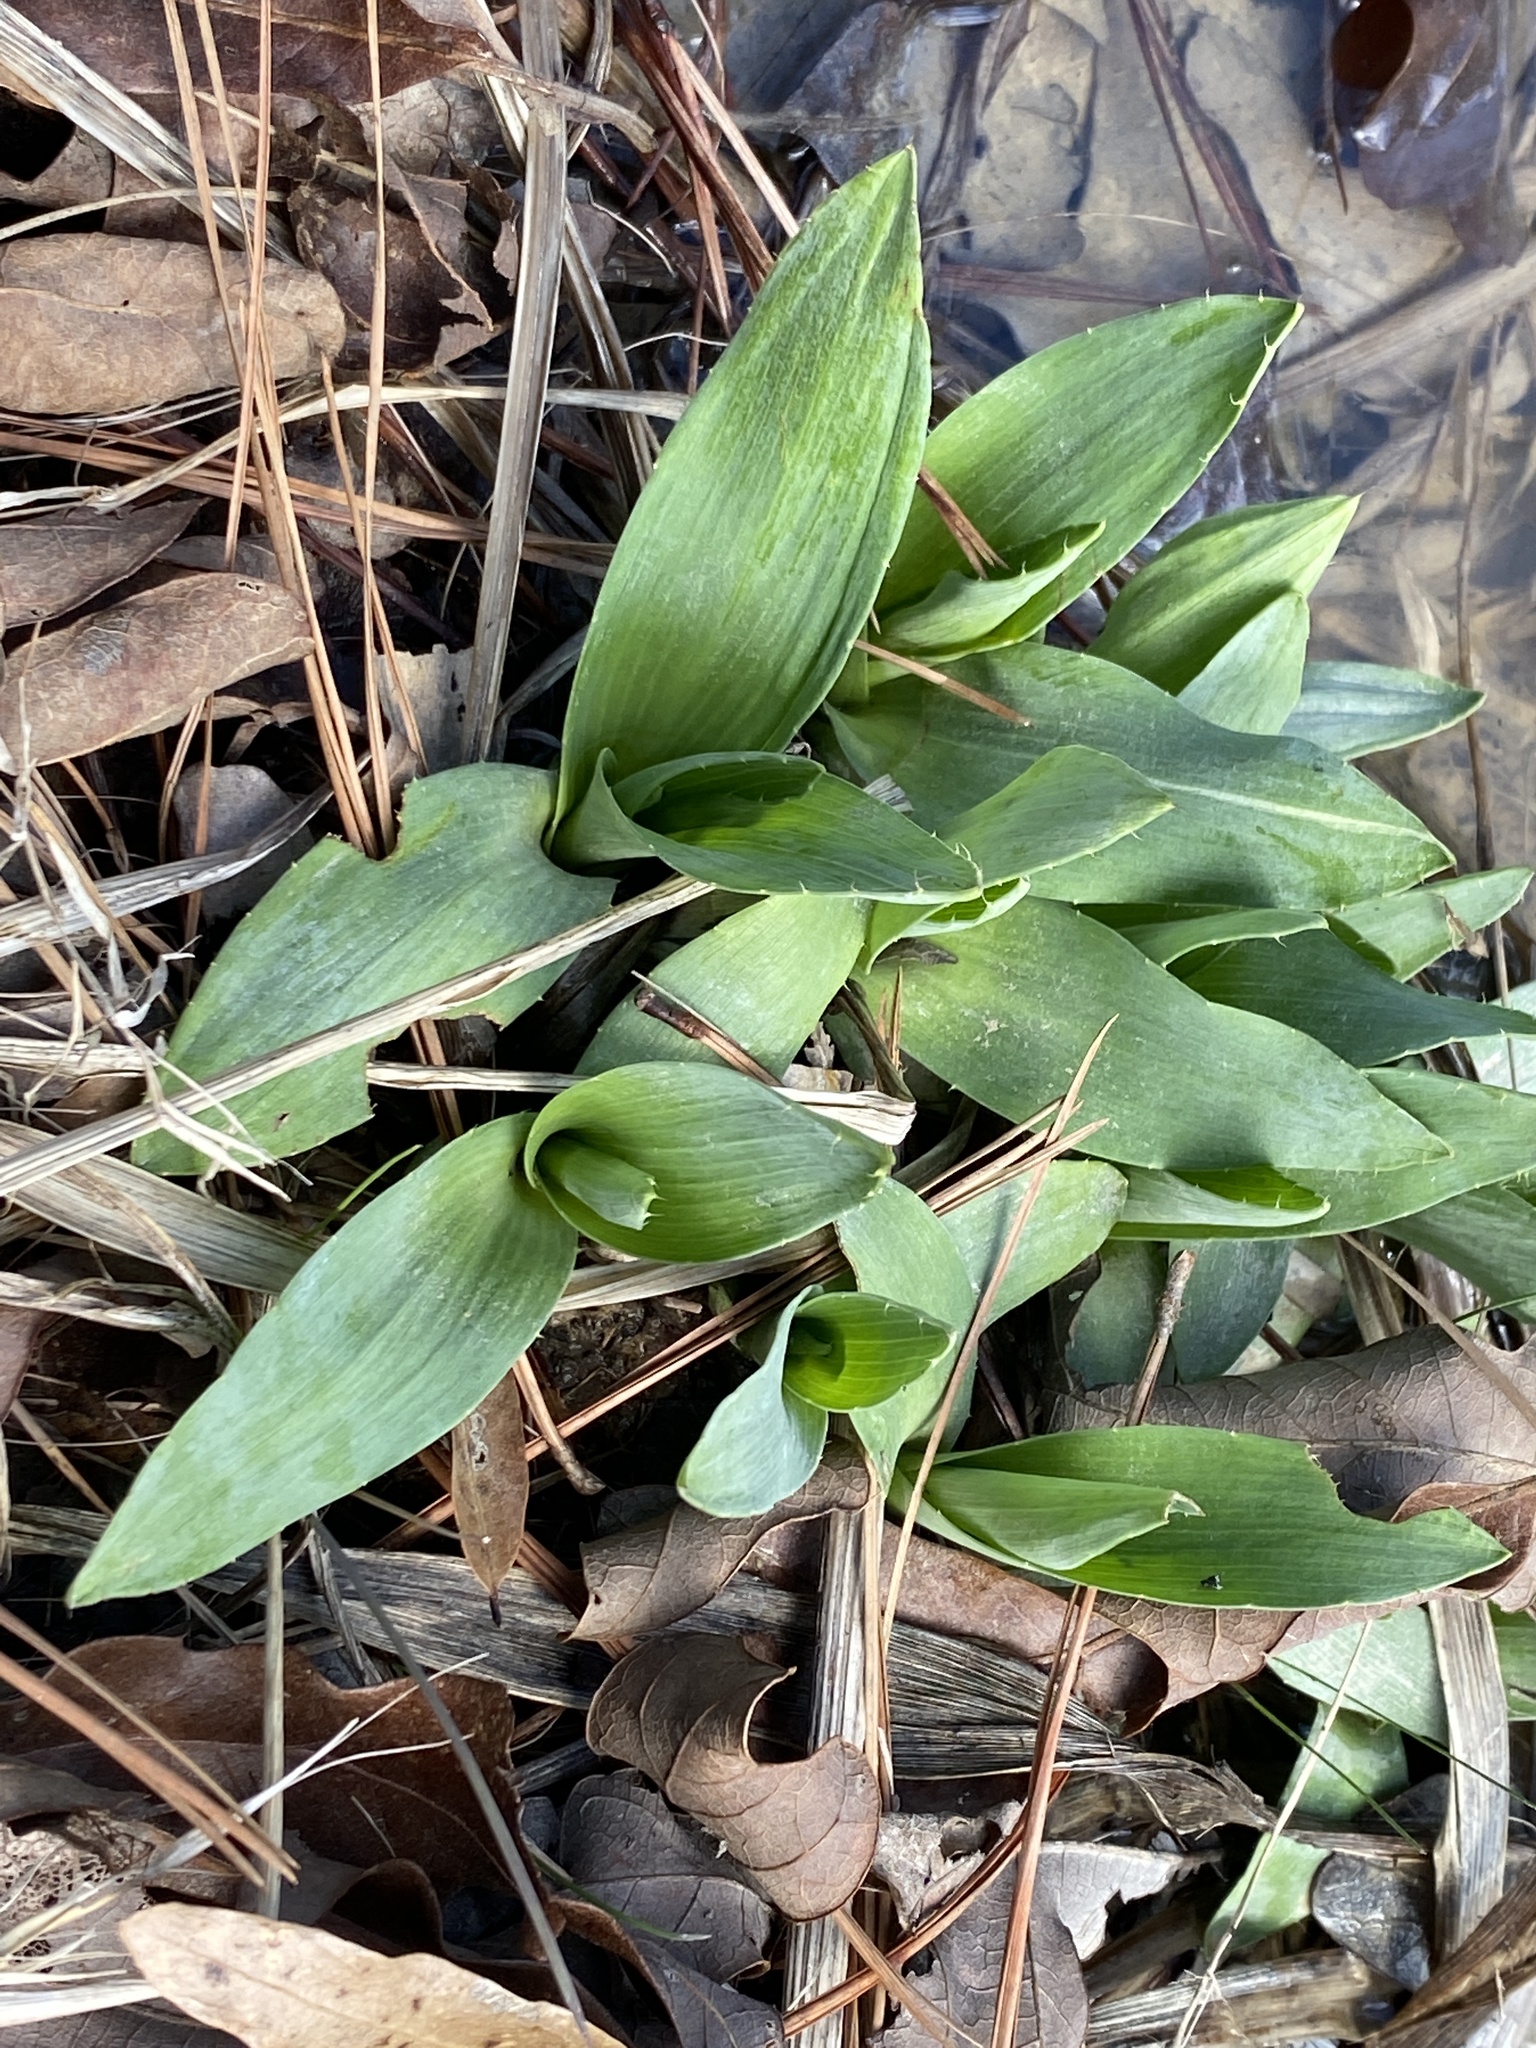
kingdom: Plantae
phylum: Tracheophyta
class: Magnoliopsida
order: Apiales
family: Apiaceae
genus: Eryngium
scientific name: Eryngium yuccifolium
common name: Button eryngo
